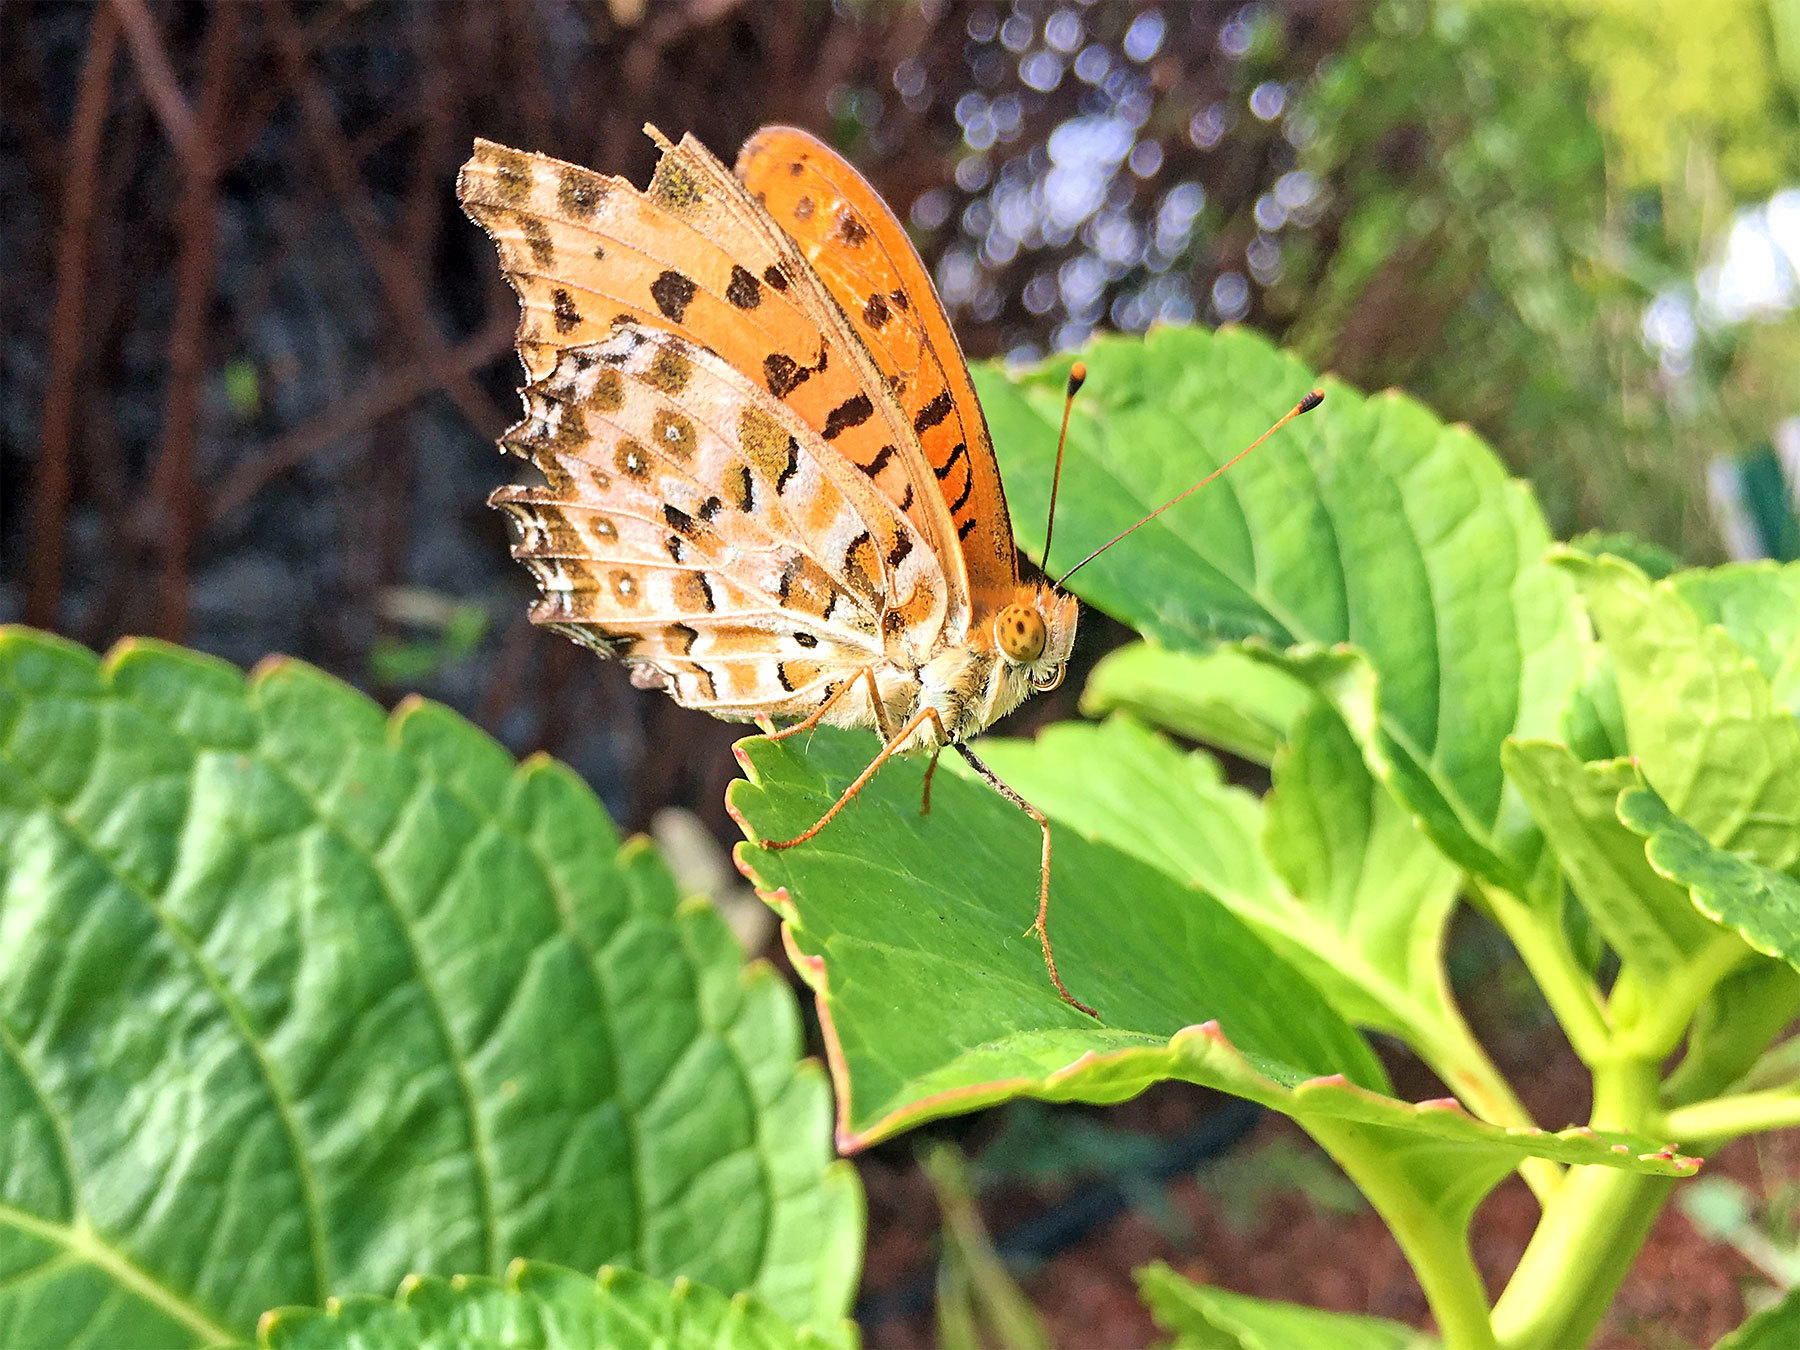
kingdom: Animalia
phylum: Arthropoda
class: Insecta
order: Lepidoptera
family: Nymphalidae
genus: Argynnis
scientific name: Argynnis hyperbius
